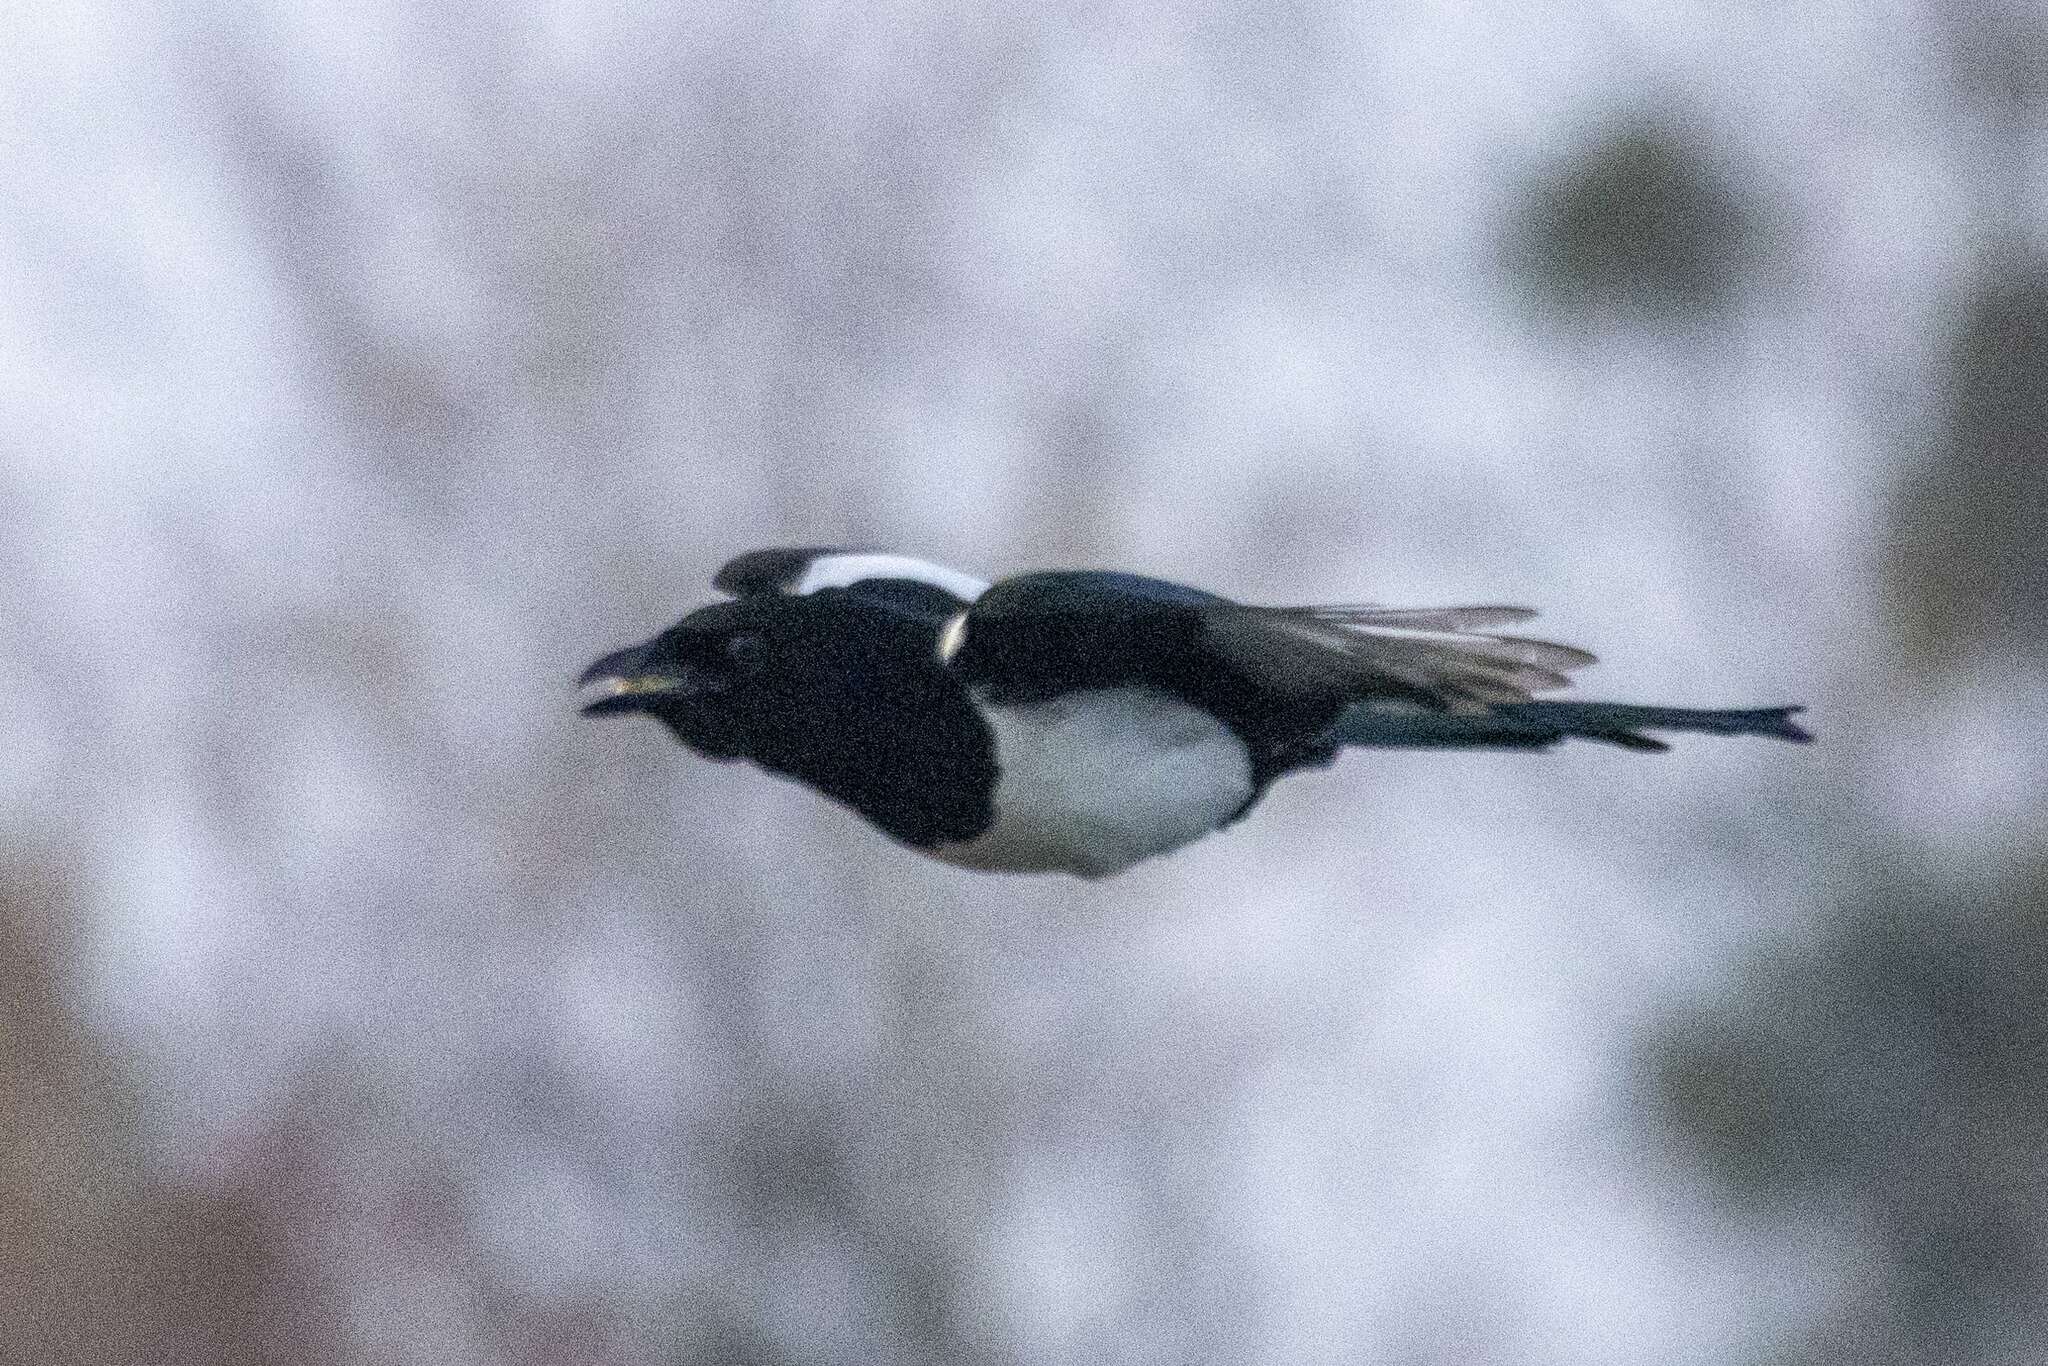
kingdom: Animalia
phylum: Chordata
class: Aves
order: Passeriformes
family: Corvidae
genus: Pica
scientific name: Pica pica
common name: Eurasian magpie
